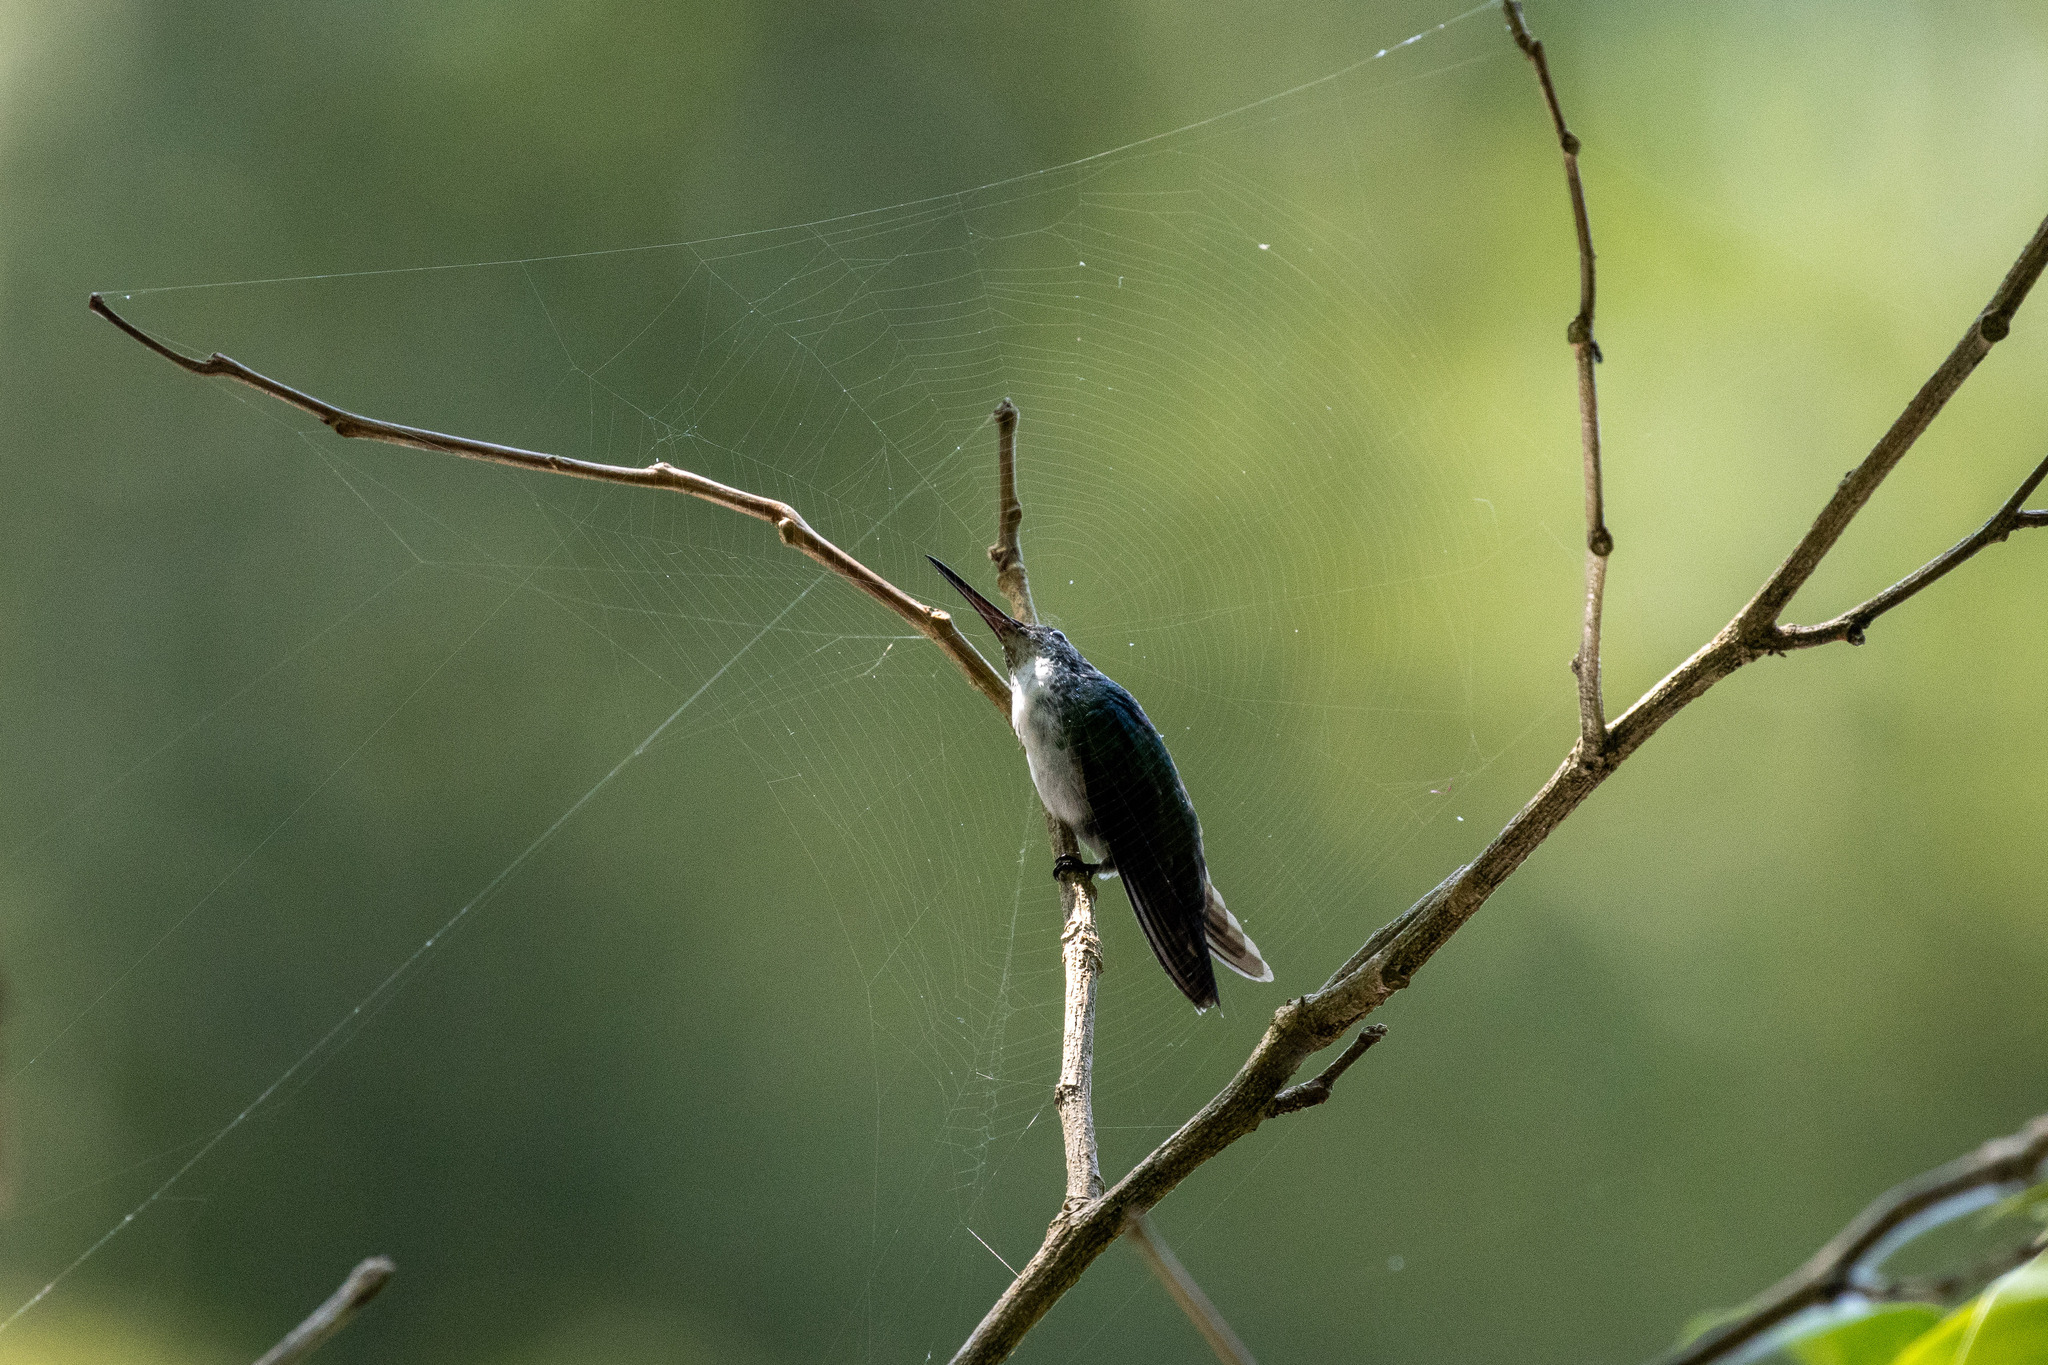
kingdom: Animalia
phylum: Chordata
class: Aves
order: Apodiformes
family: Trochilidae
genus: Chrysuronia
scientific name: Chrysuronia leucogaster
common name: Plain-bellied emerald
